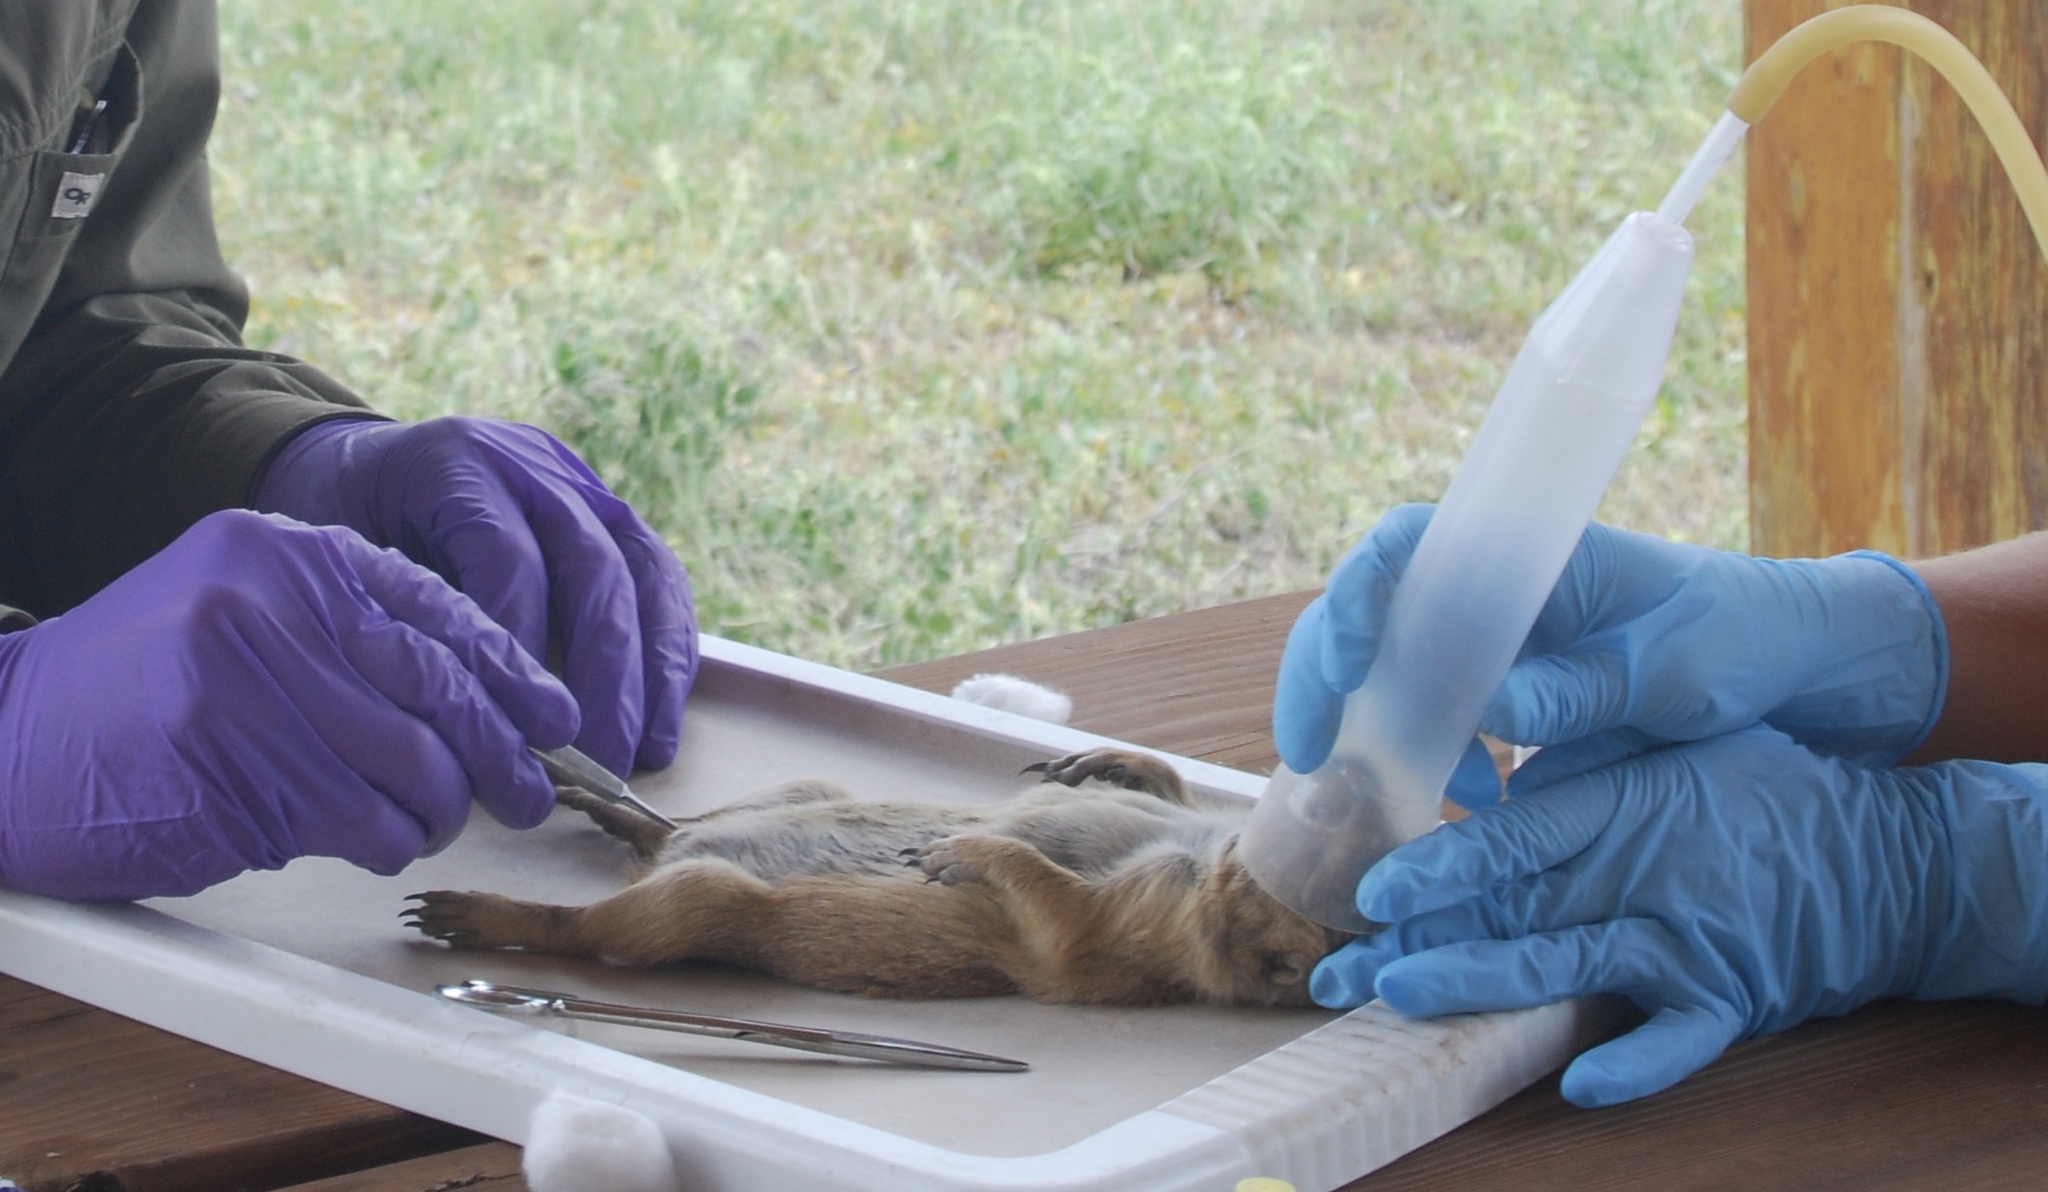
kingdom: Animalia
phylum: Chordata
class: Mammalia
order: Rodentia
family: Sciuridae
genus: Cynomys
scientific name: Cynomys ludovicianus
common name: Black-tailed prairie dog
